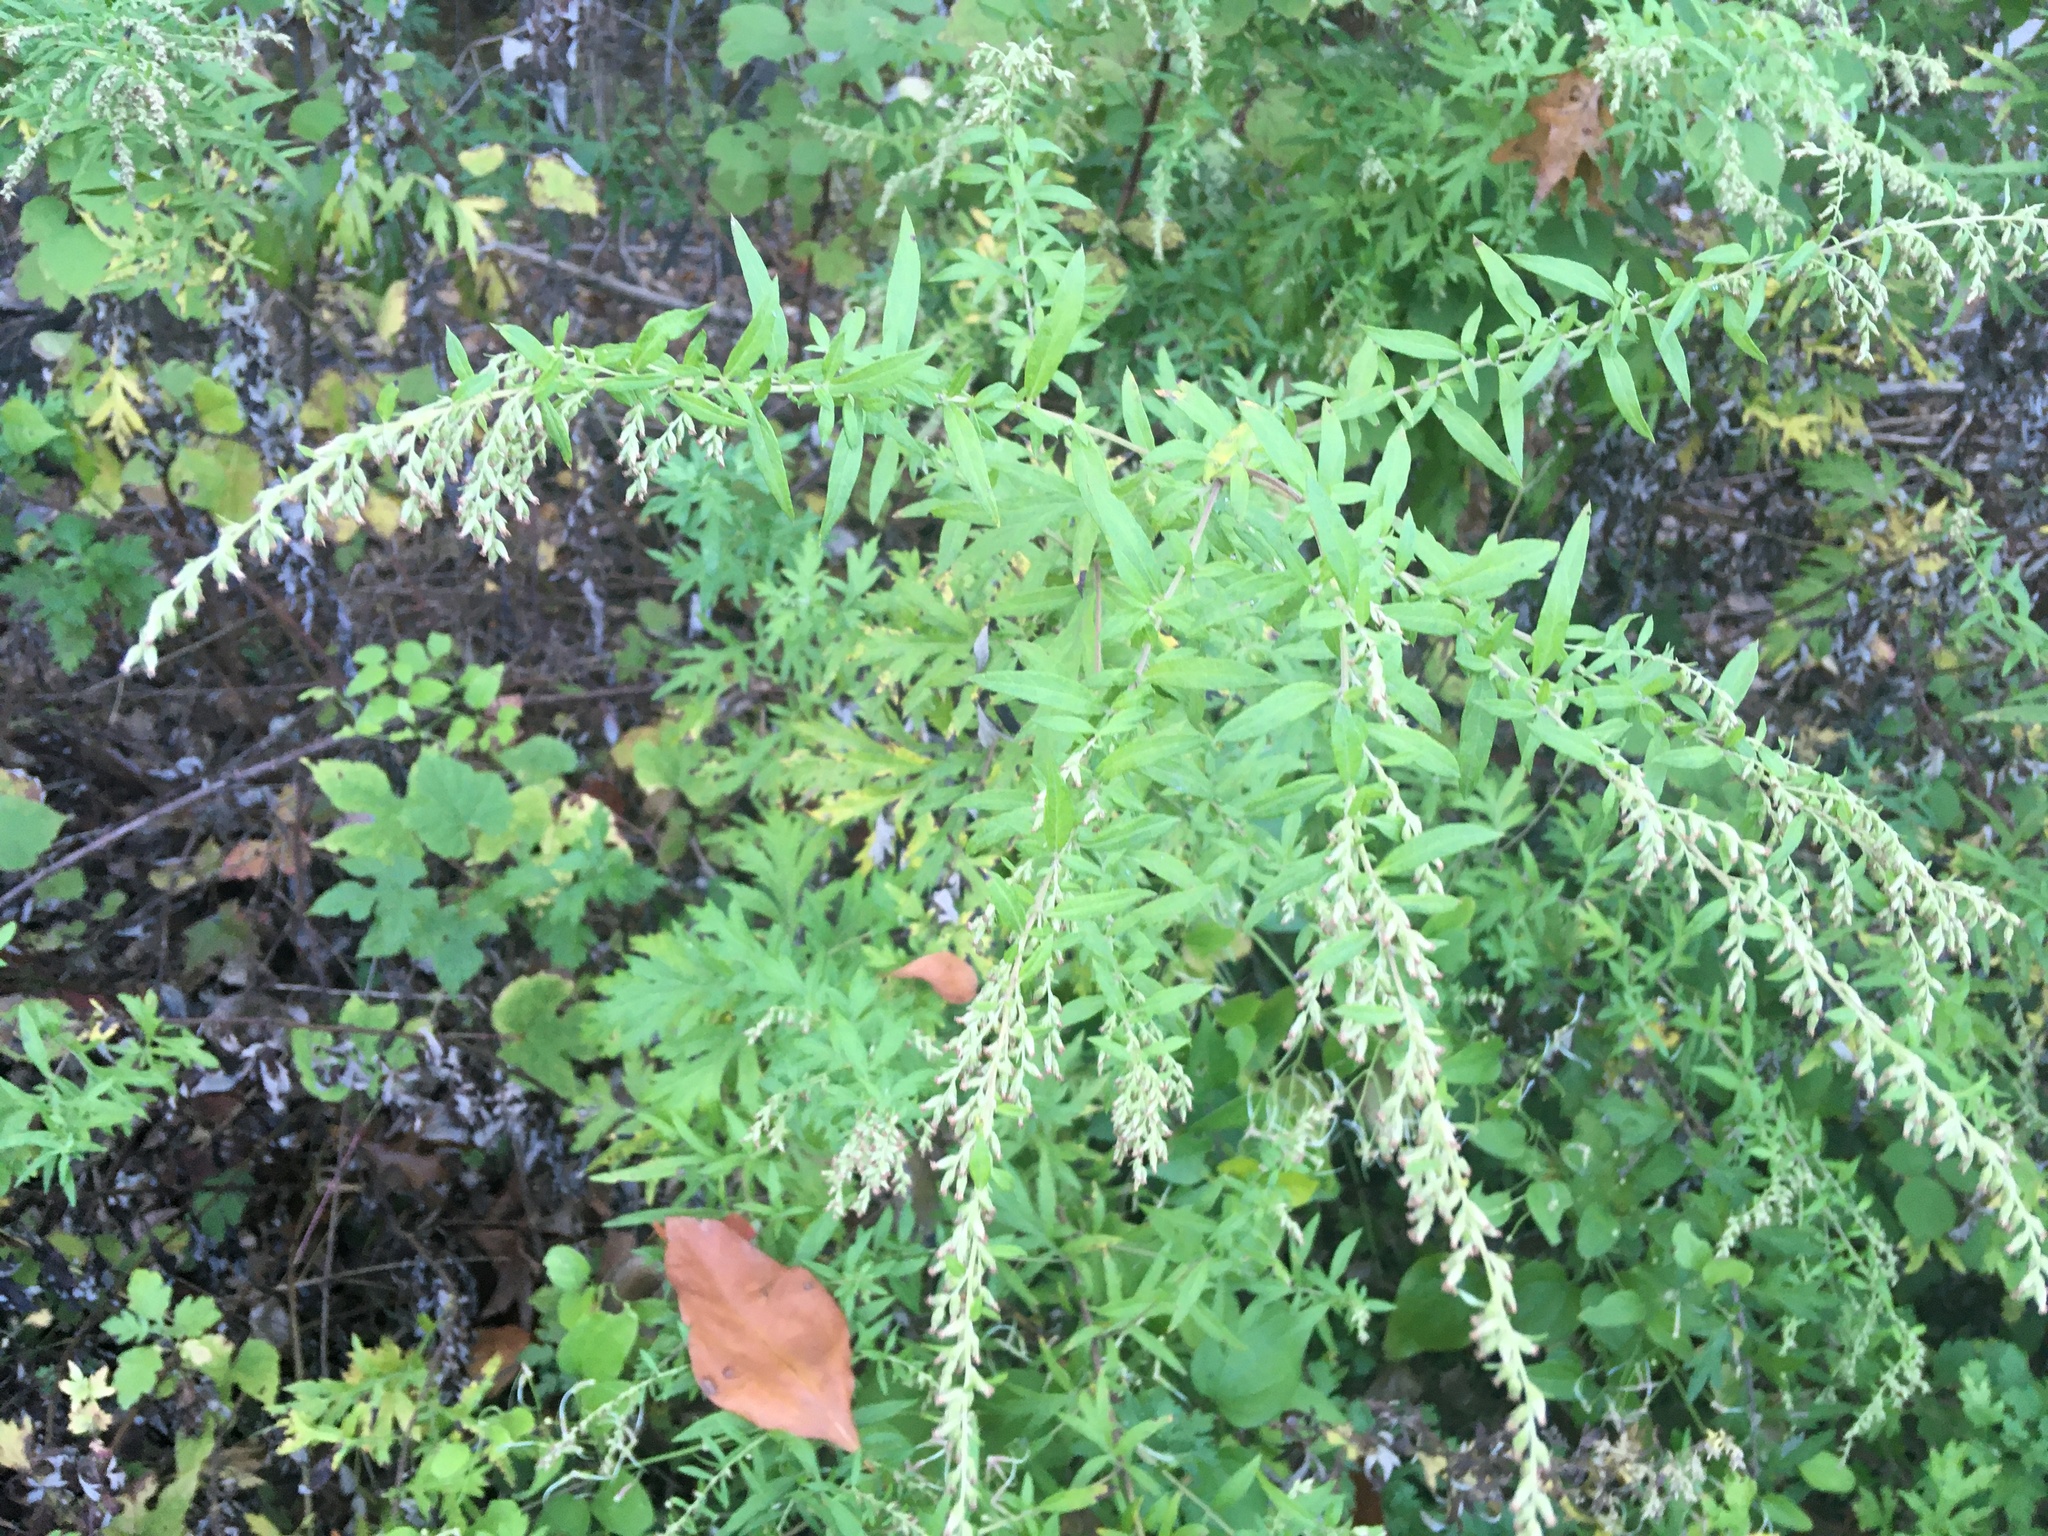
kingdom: Plantae
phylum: Tracheophyta
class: Magnoliopsida
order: Asterales
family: Asteraceae
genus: Artemisia
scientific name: Artemisia vulgaris
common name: Mugwort
